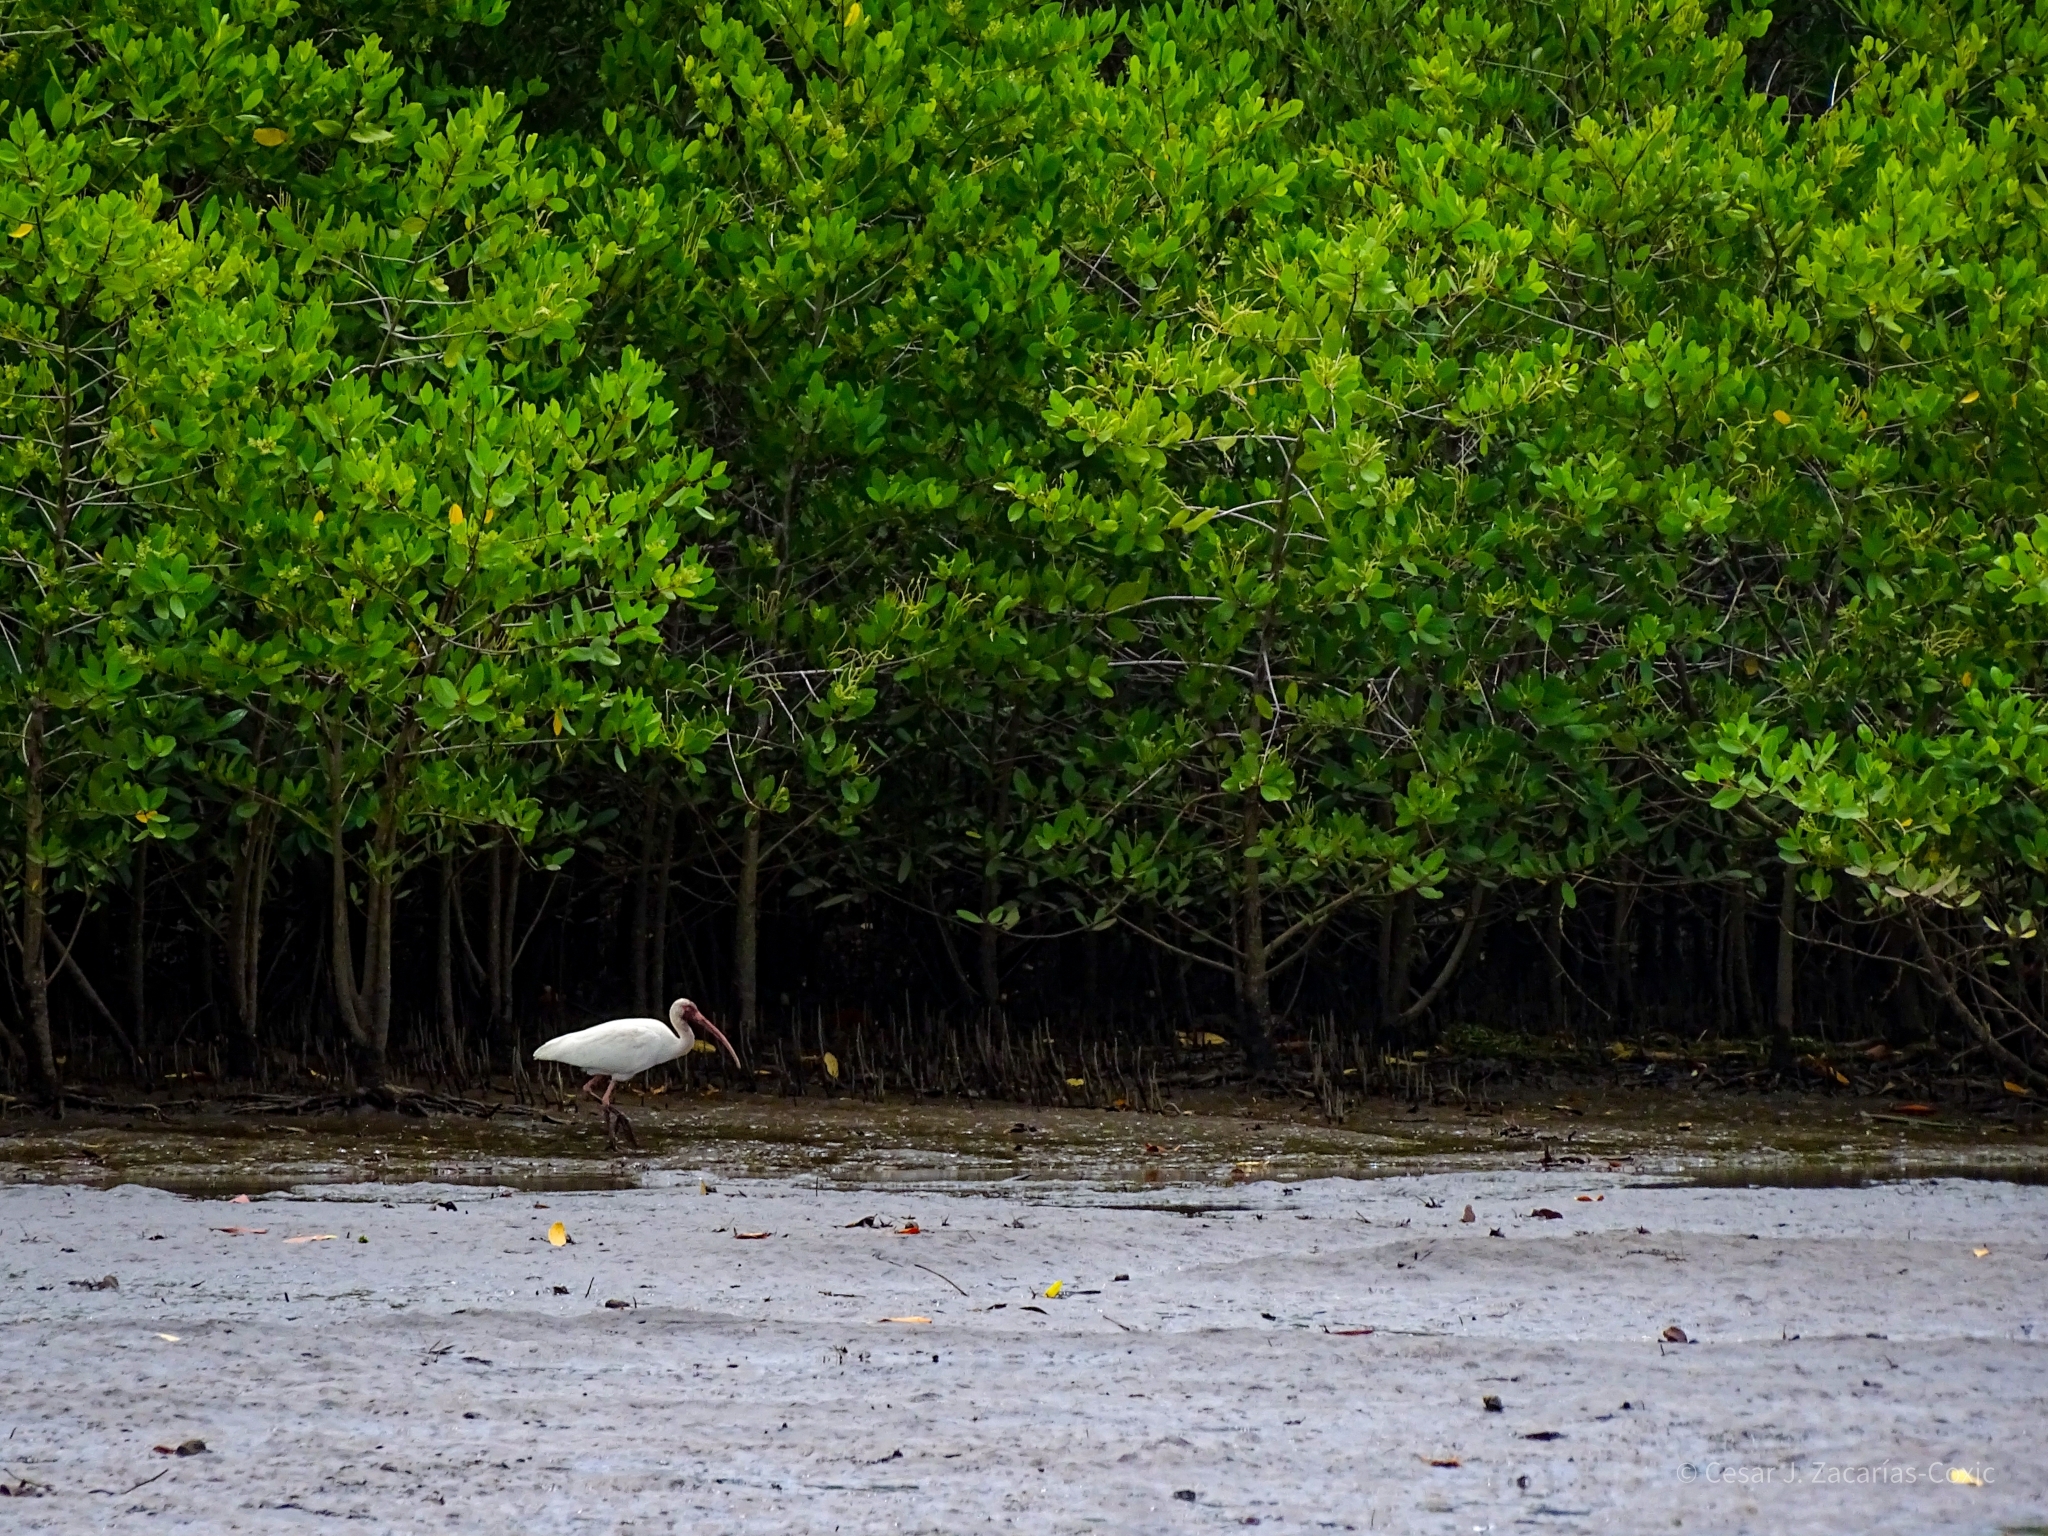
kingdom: Animalia
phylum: Chordata
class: Aves
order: Pelecaniformes
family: Threskiornithidae
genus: Eudocimus
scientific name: Eudocimus albus
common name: White ibis
